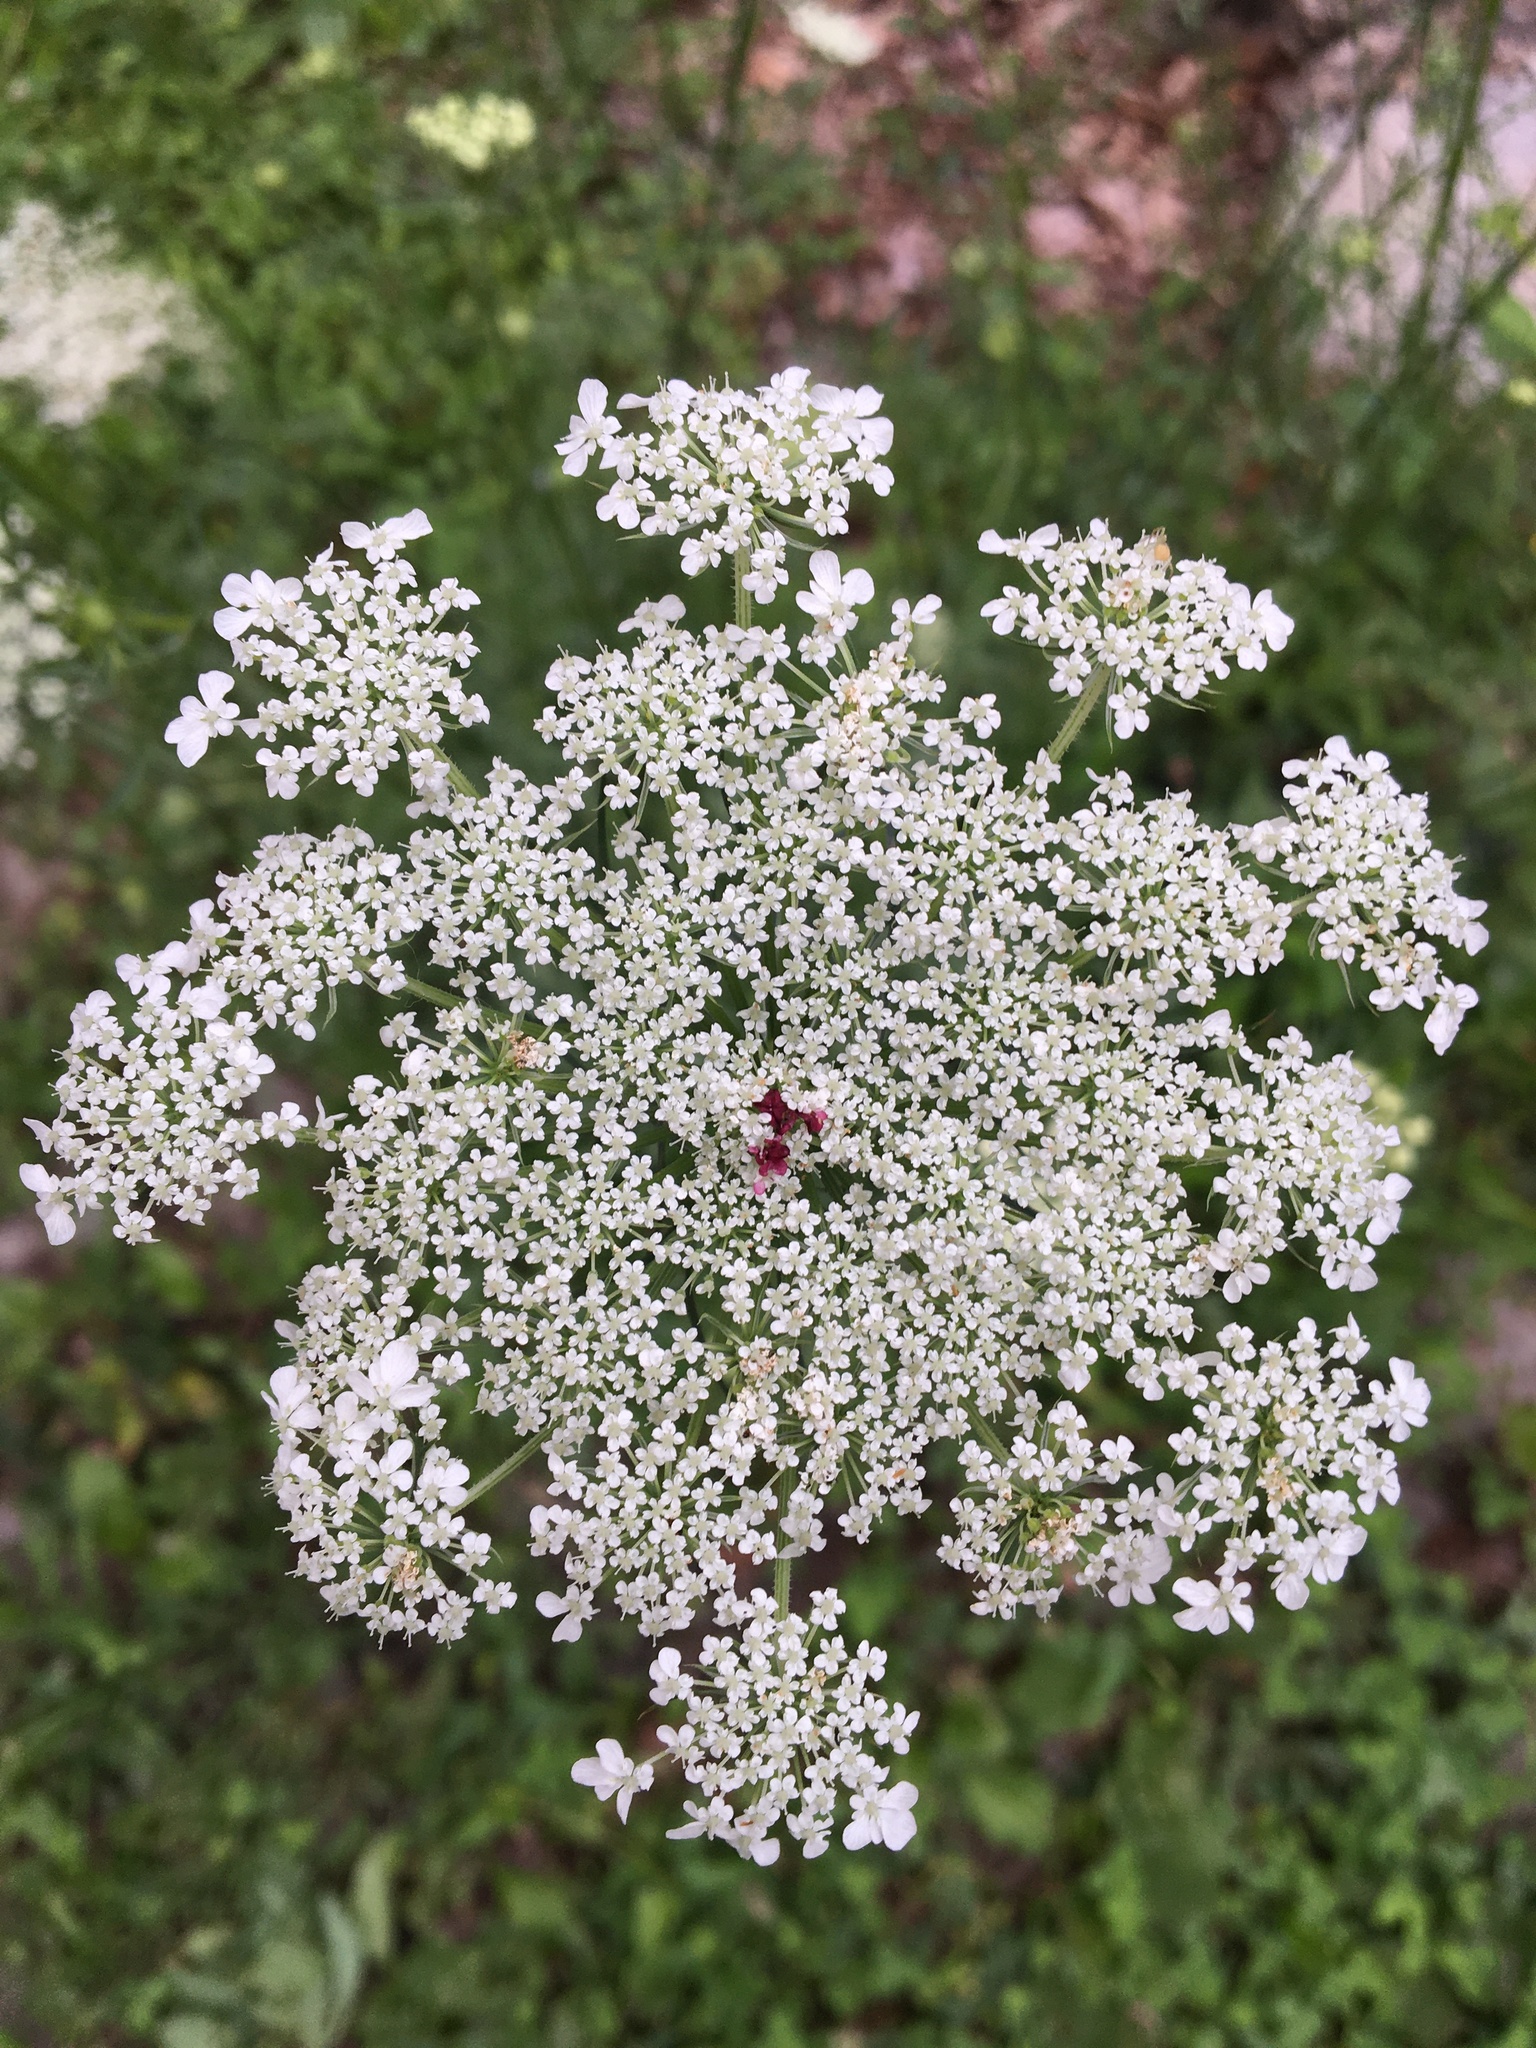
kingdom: Plantae
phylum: Tracheophyta
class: Magnoliopsida
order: Apiales
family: Apiaceae
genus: Daucus
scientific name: Daucus carota
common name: Wild carrot
